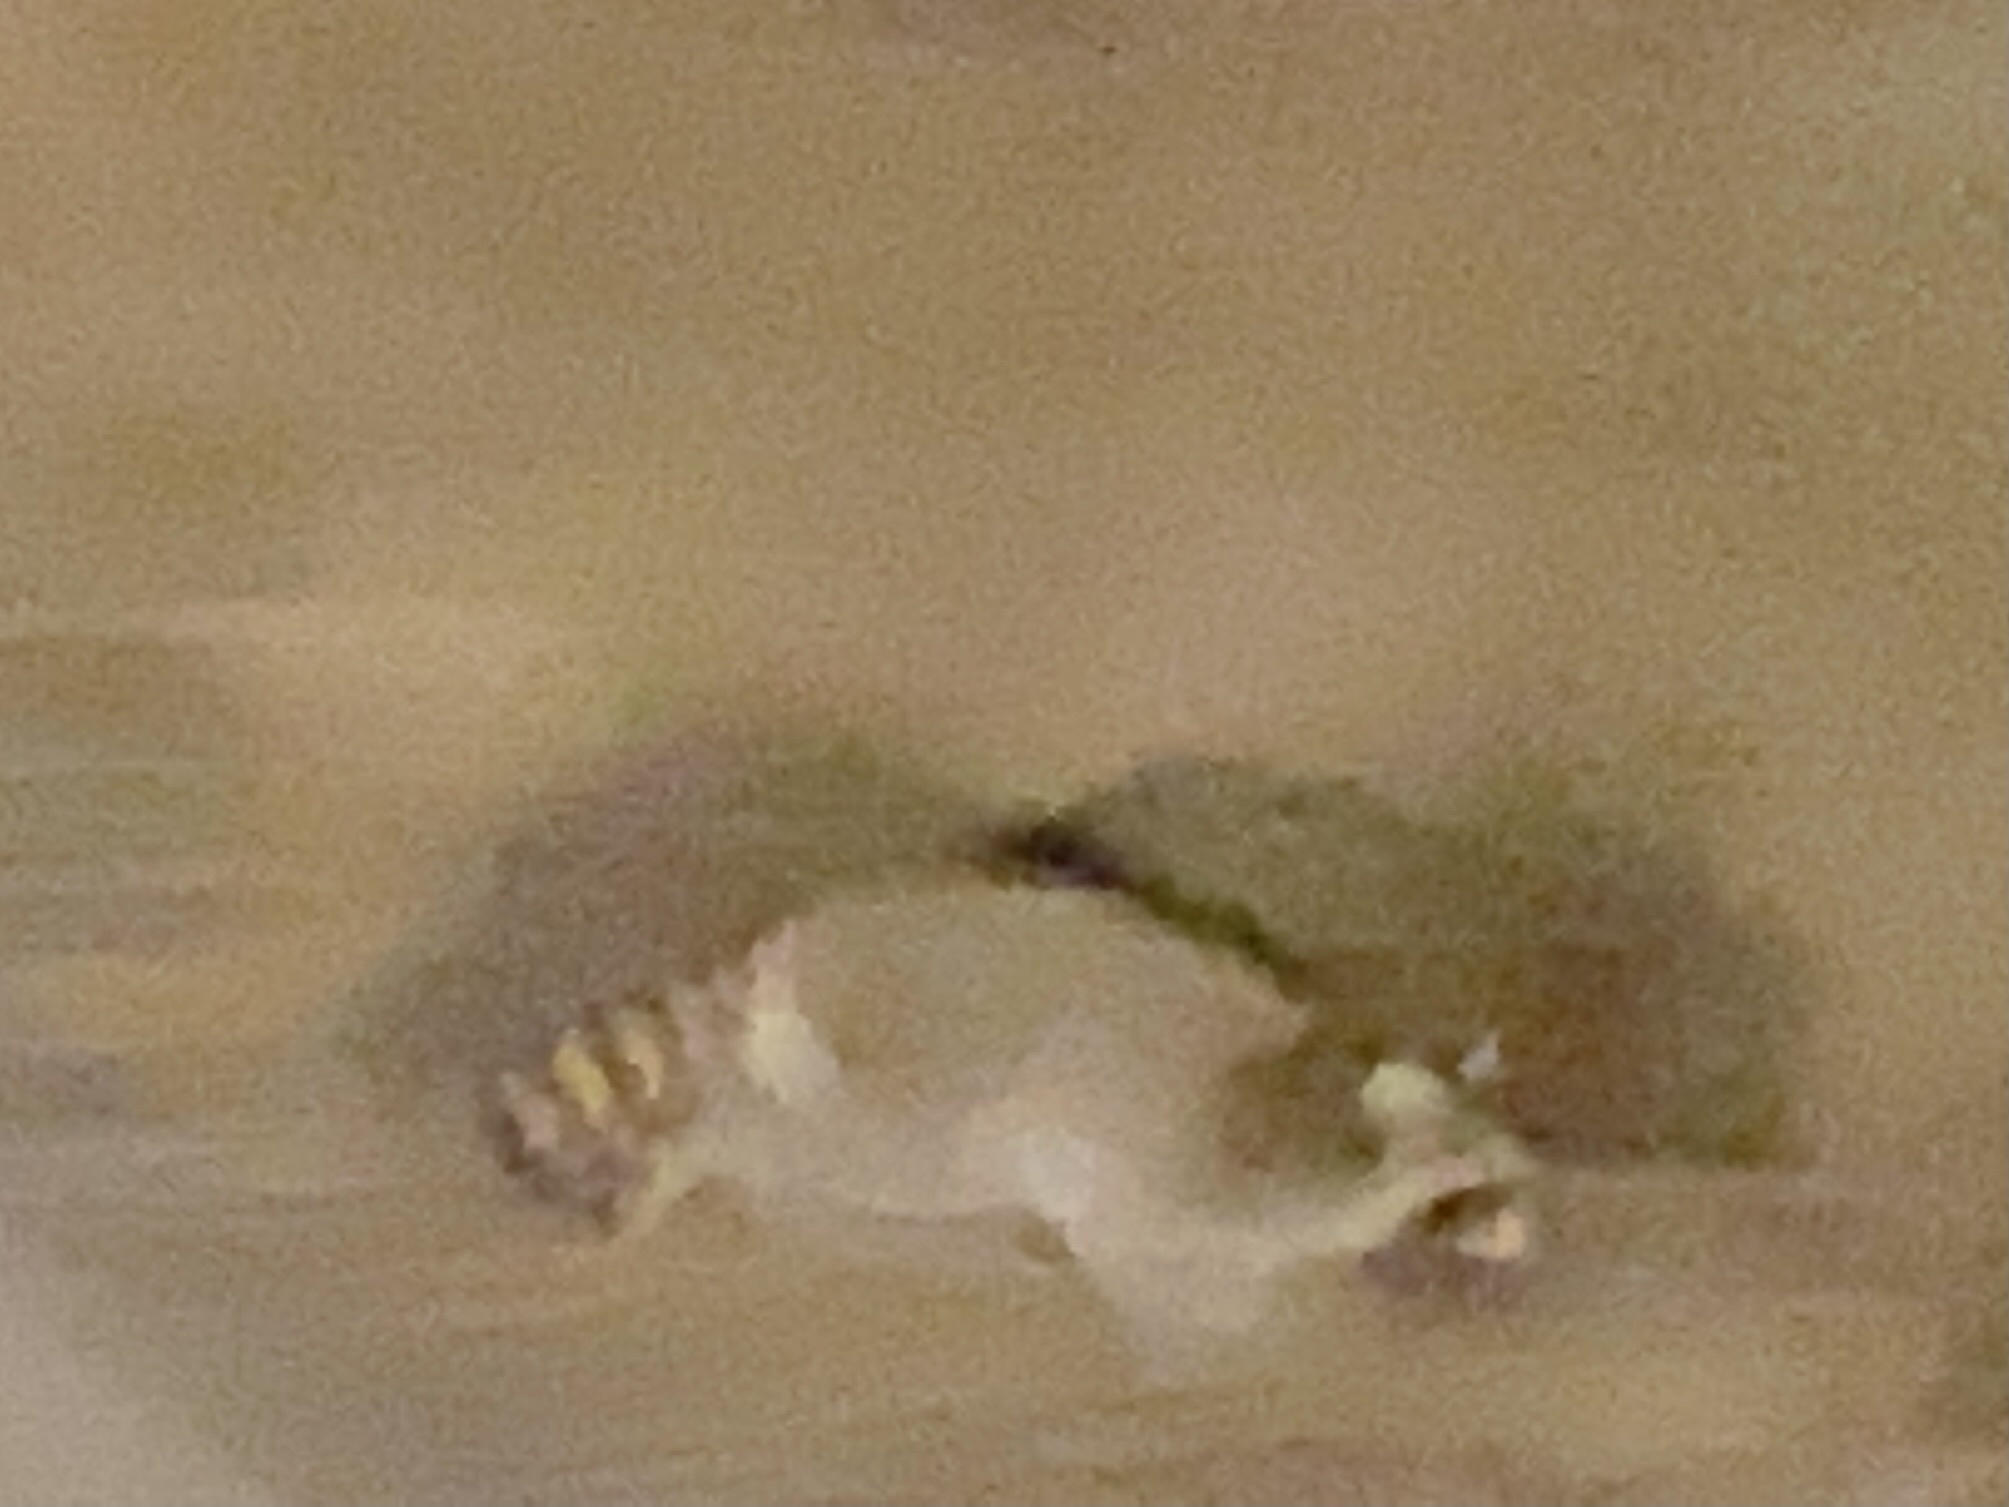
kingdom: Animalia
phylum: Chordata
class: Mammalia
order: Carnivora
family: Procyonidae
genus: Procyon
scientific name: Procyon lotor
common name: Raccoon
